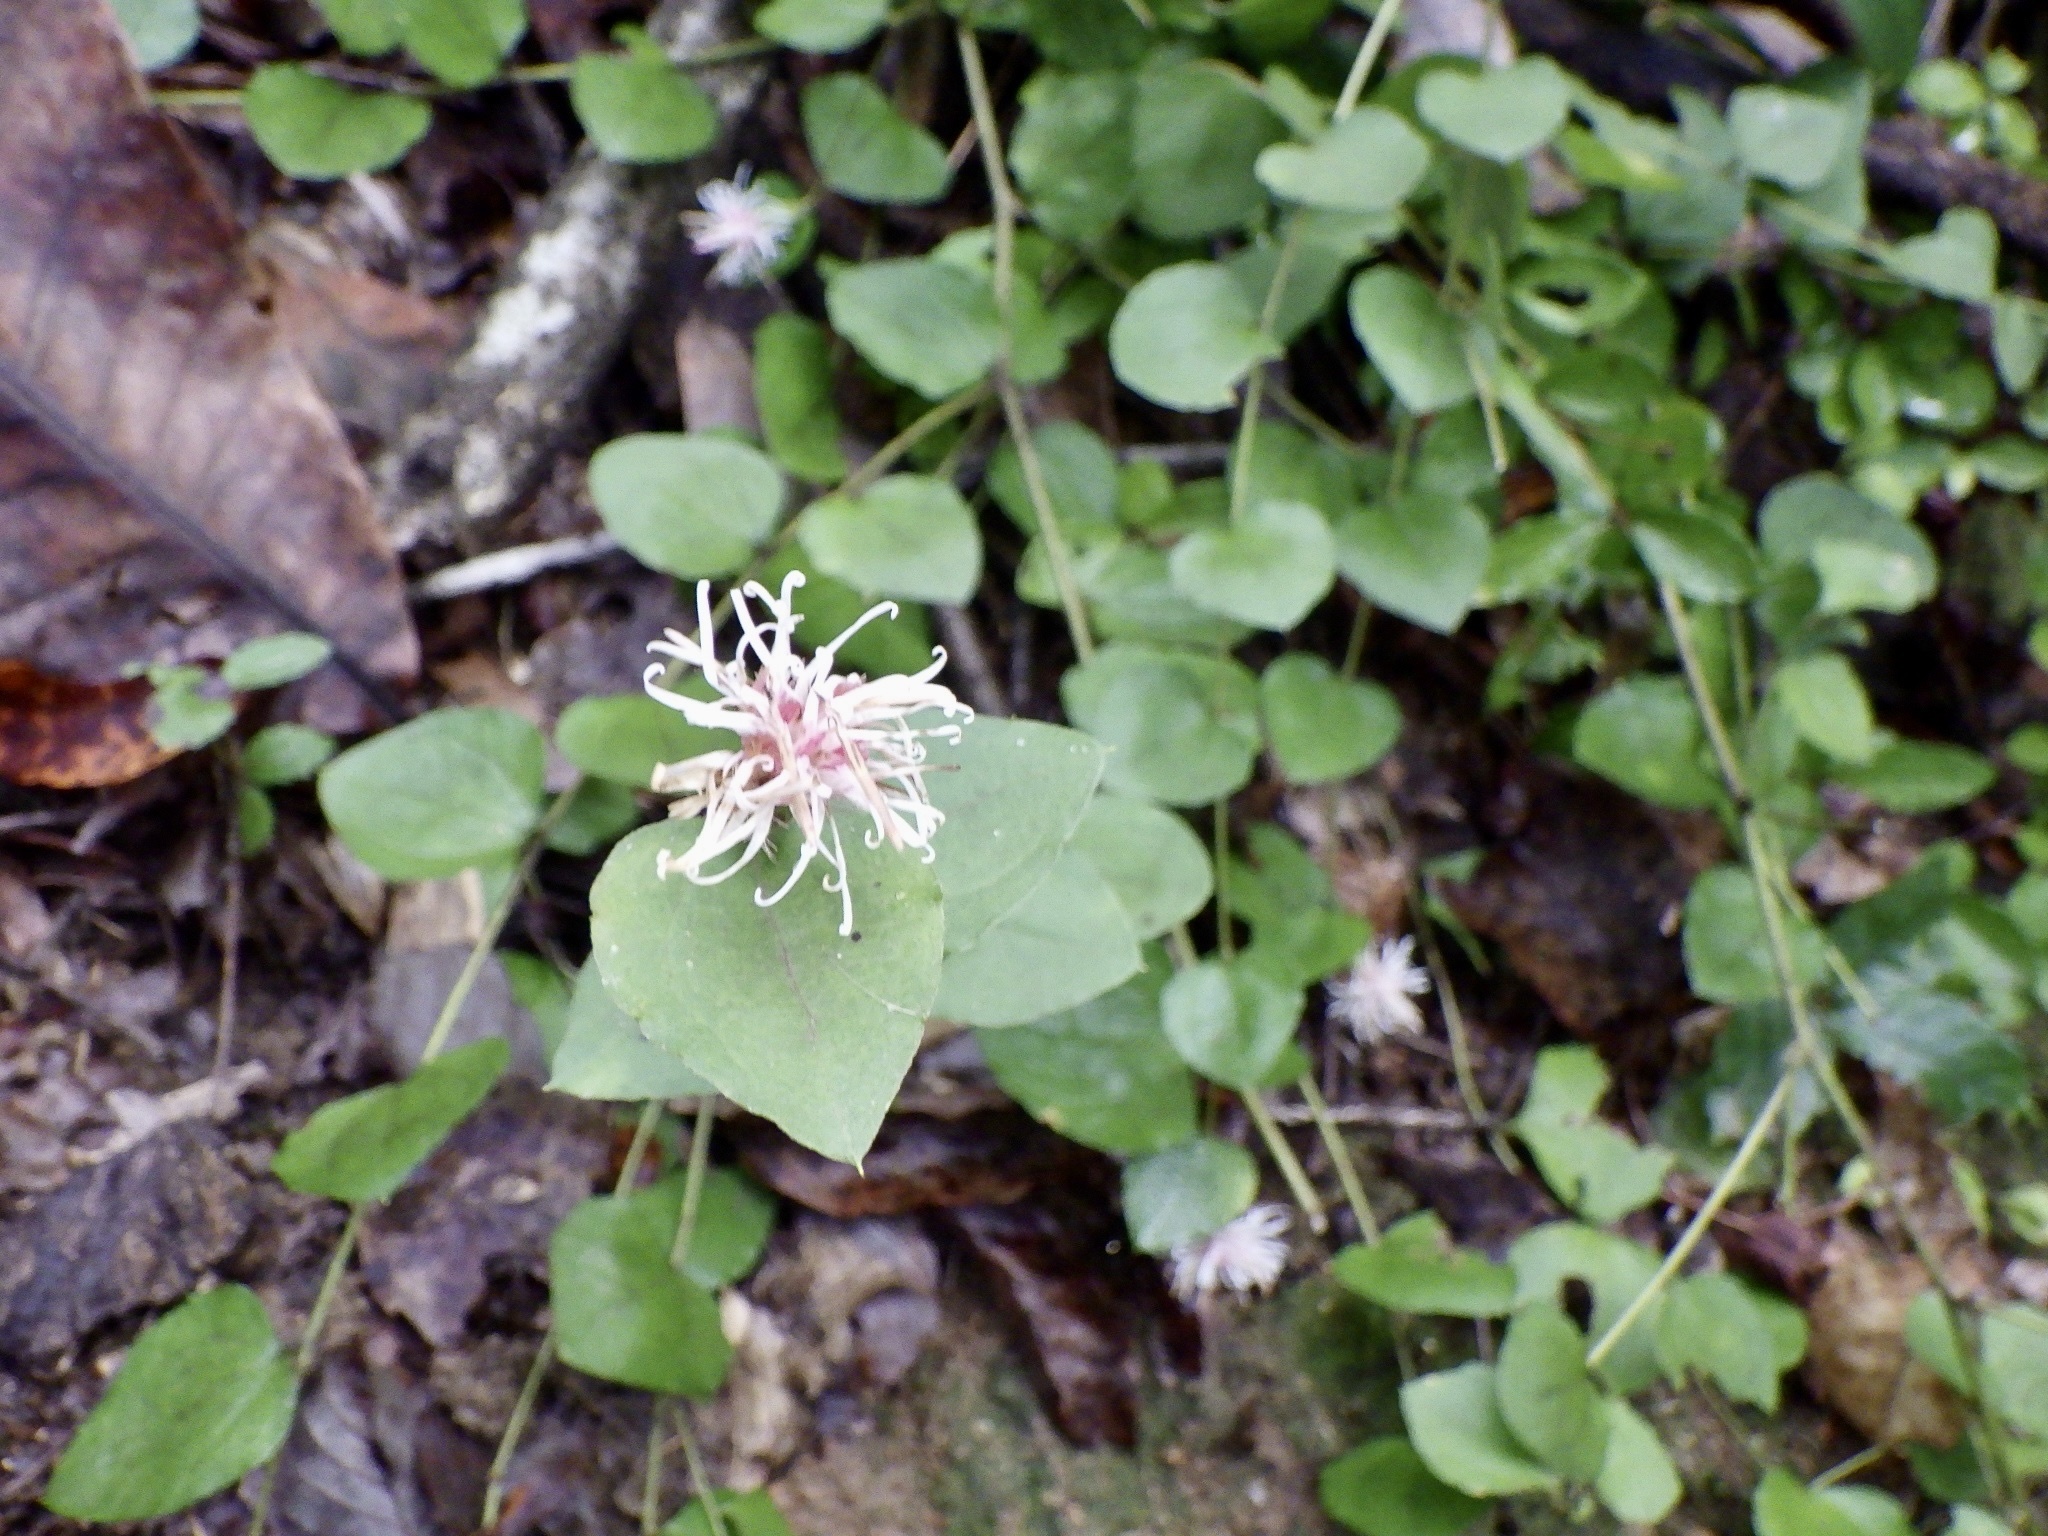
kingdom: Plantae
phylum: Tracheophyta
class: Magnoliopsida
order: Asterales
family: Asteraceae
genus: Pertya
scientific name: Pertya scandens
